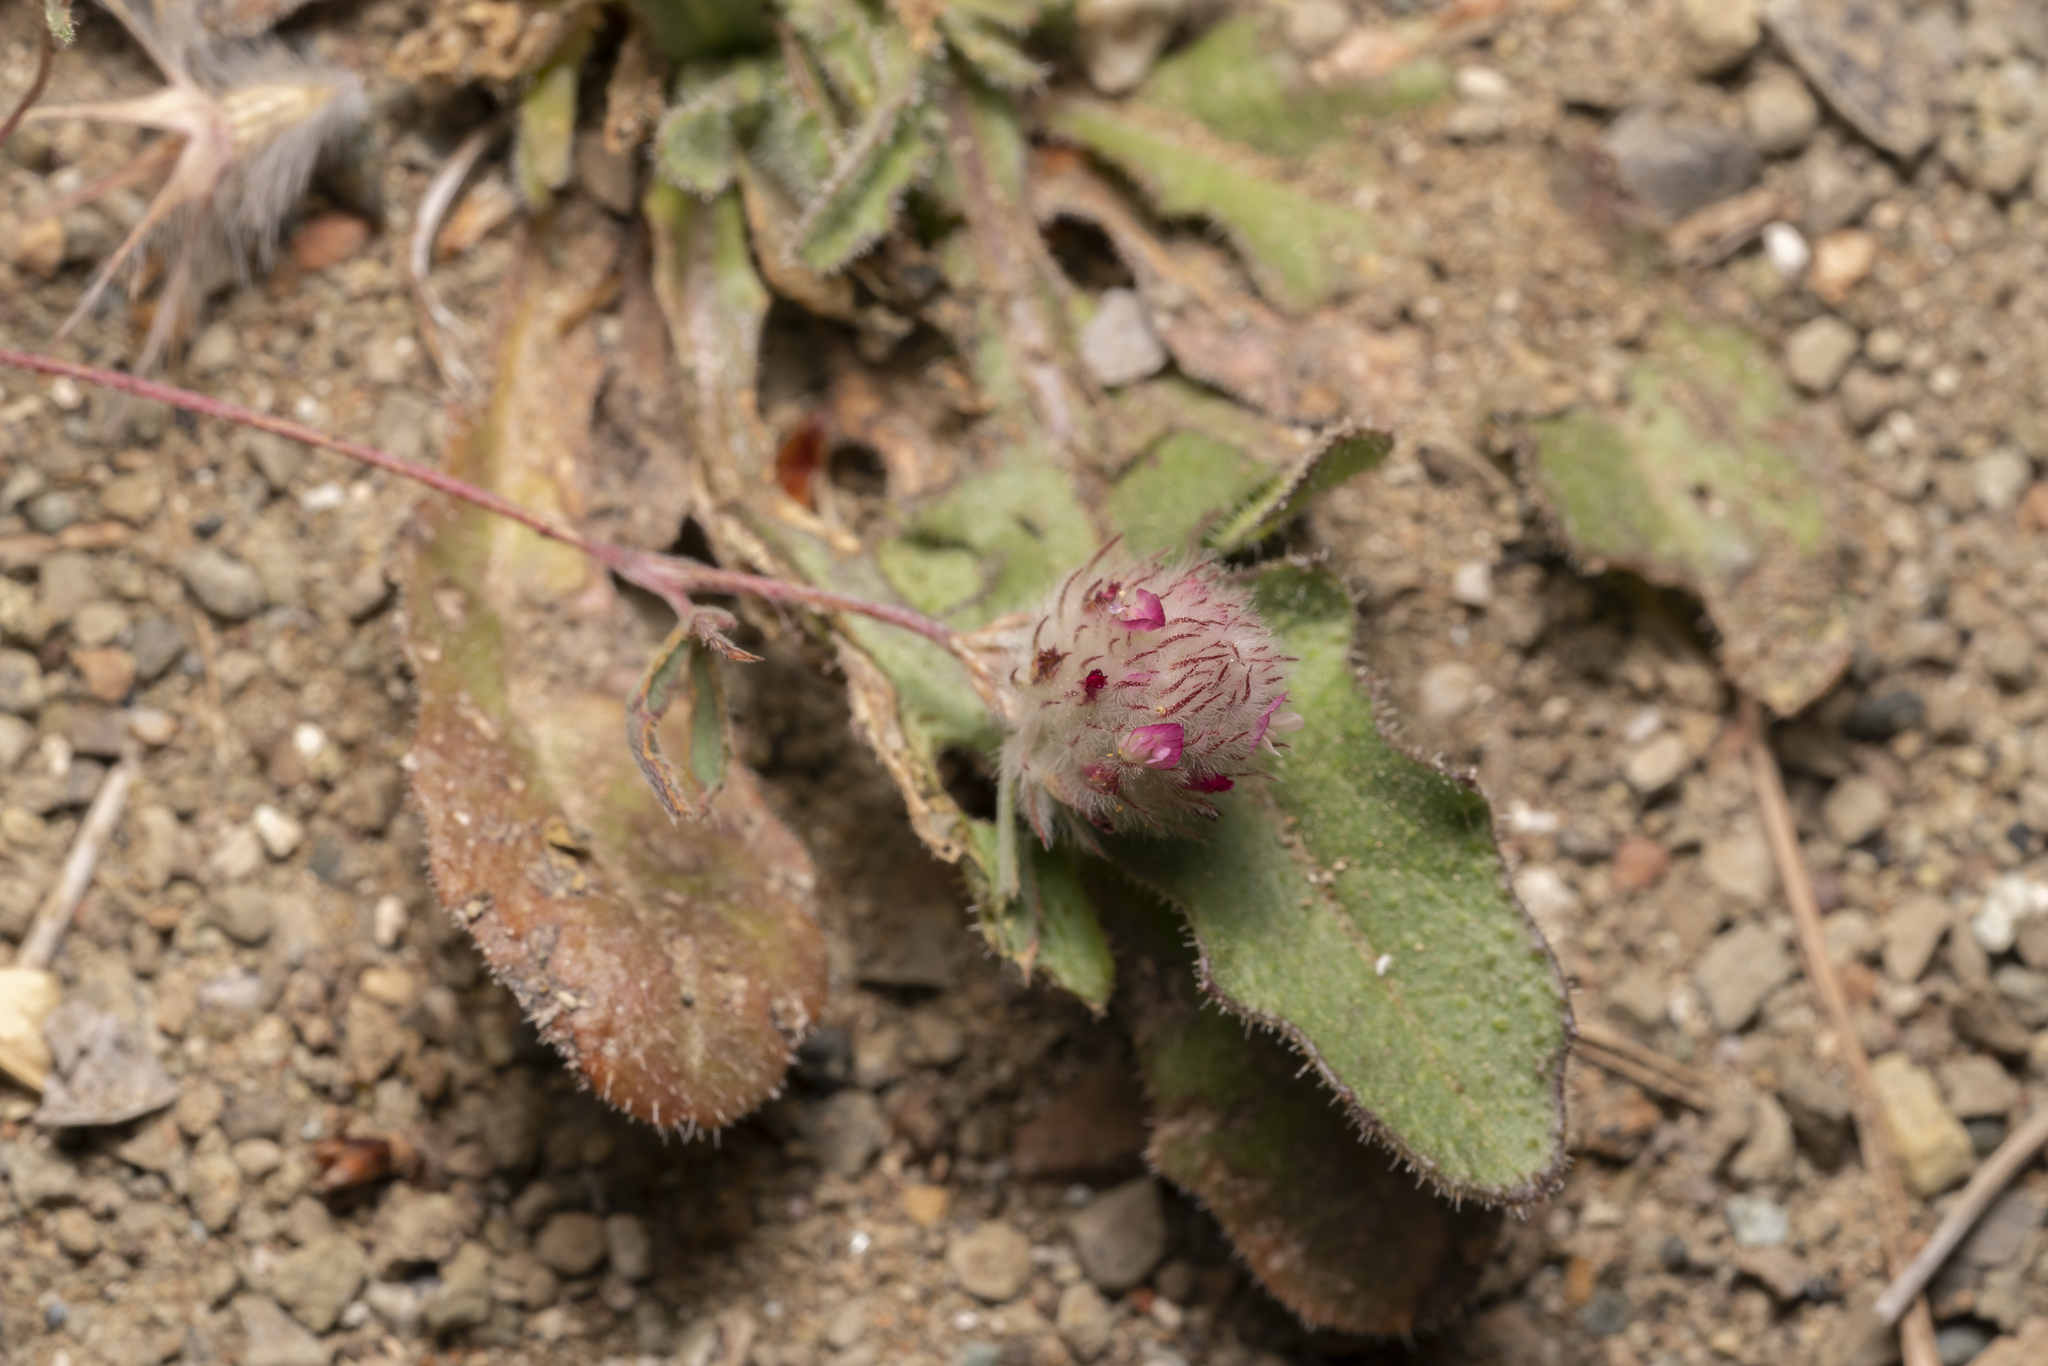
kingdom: Plantae
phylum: Tracheophyta
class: Magnoliopsida
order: Fabales
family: Fabaceae
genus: Trifolium
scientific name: Trifolium affine
